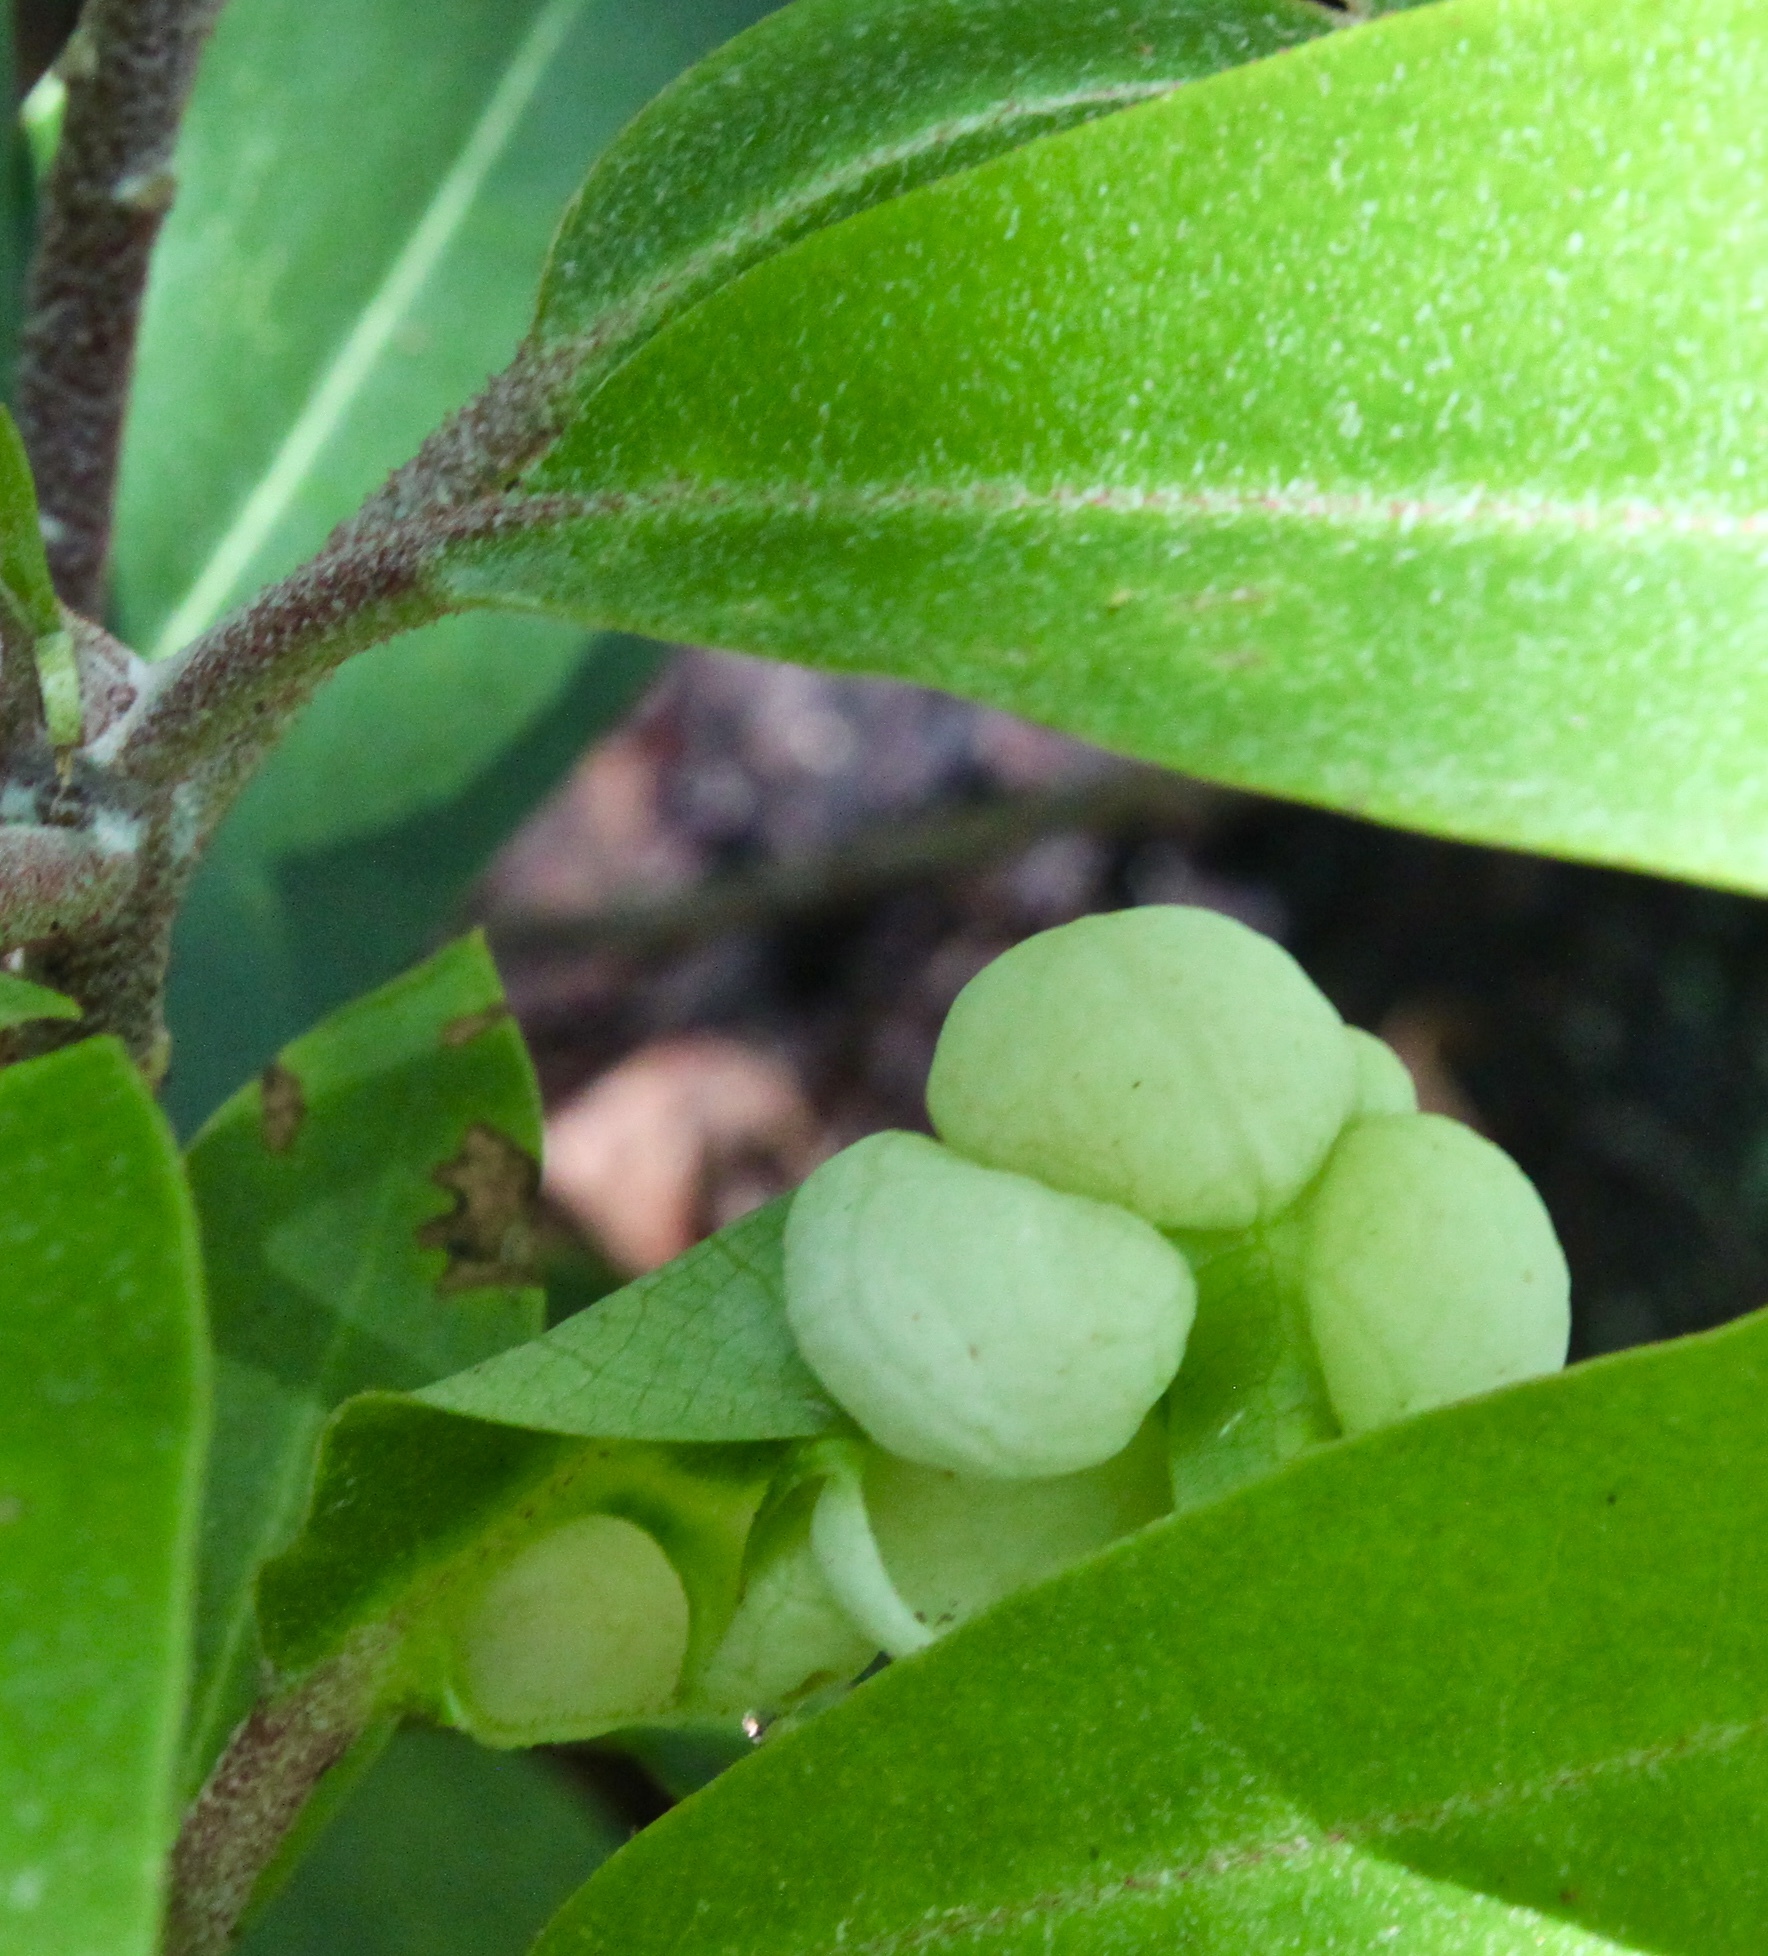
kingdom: Fungi
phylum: Basidiomycota
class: Exobasidiomycetes
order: Exobasidiales
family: Exobasidiaceae
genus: Exobasidium
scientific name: Exobasidium rhododendri
